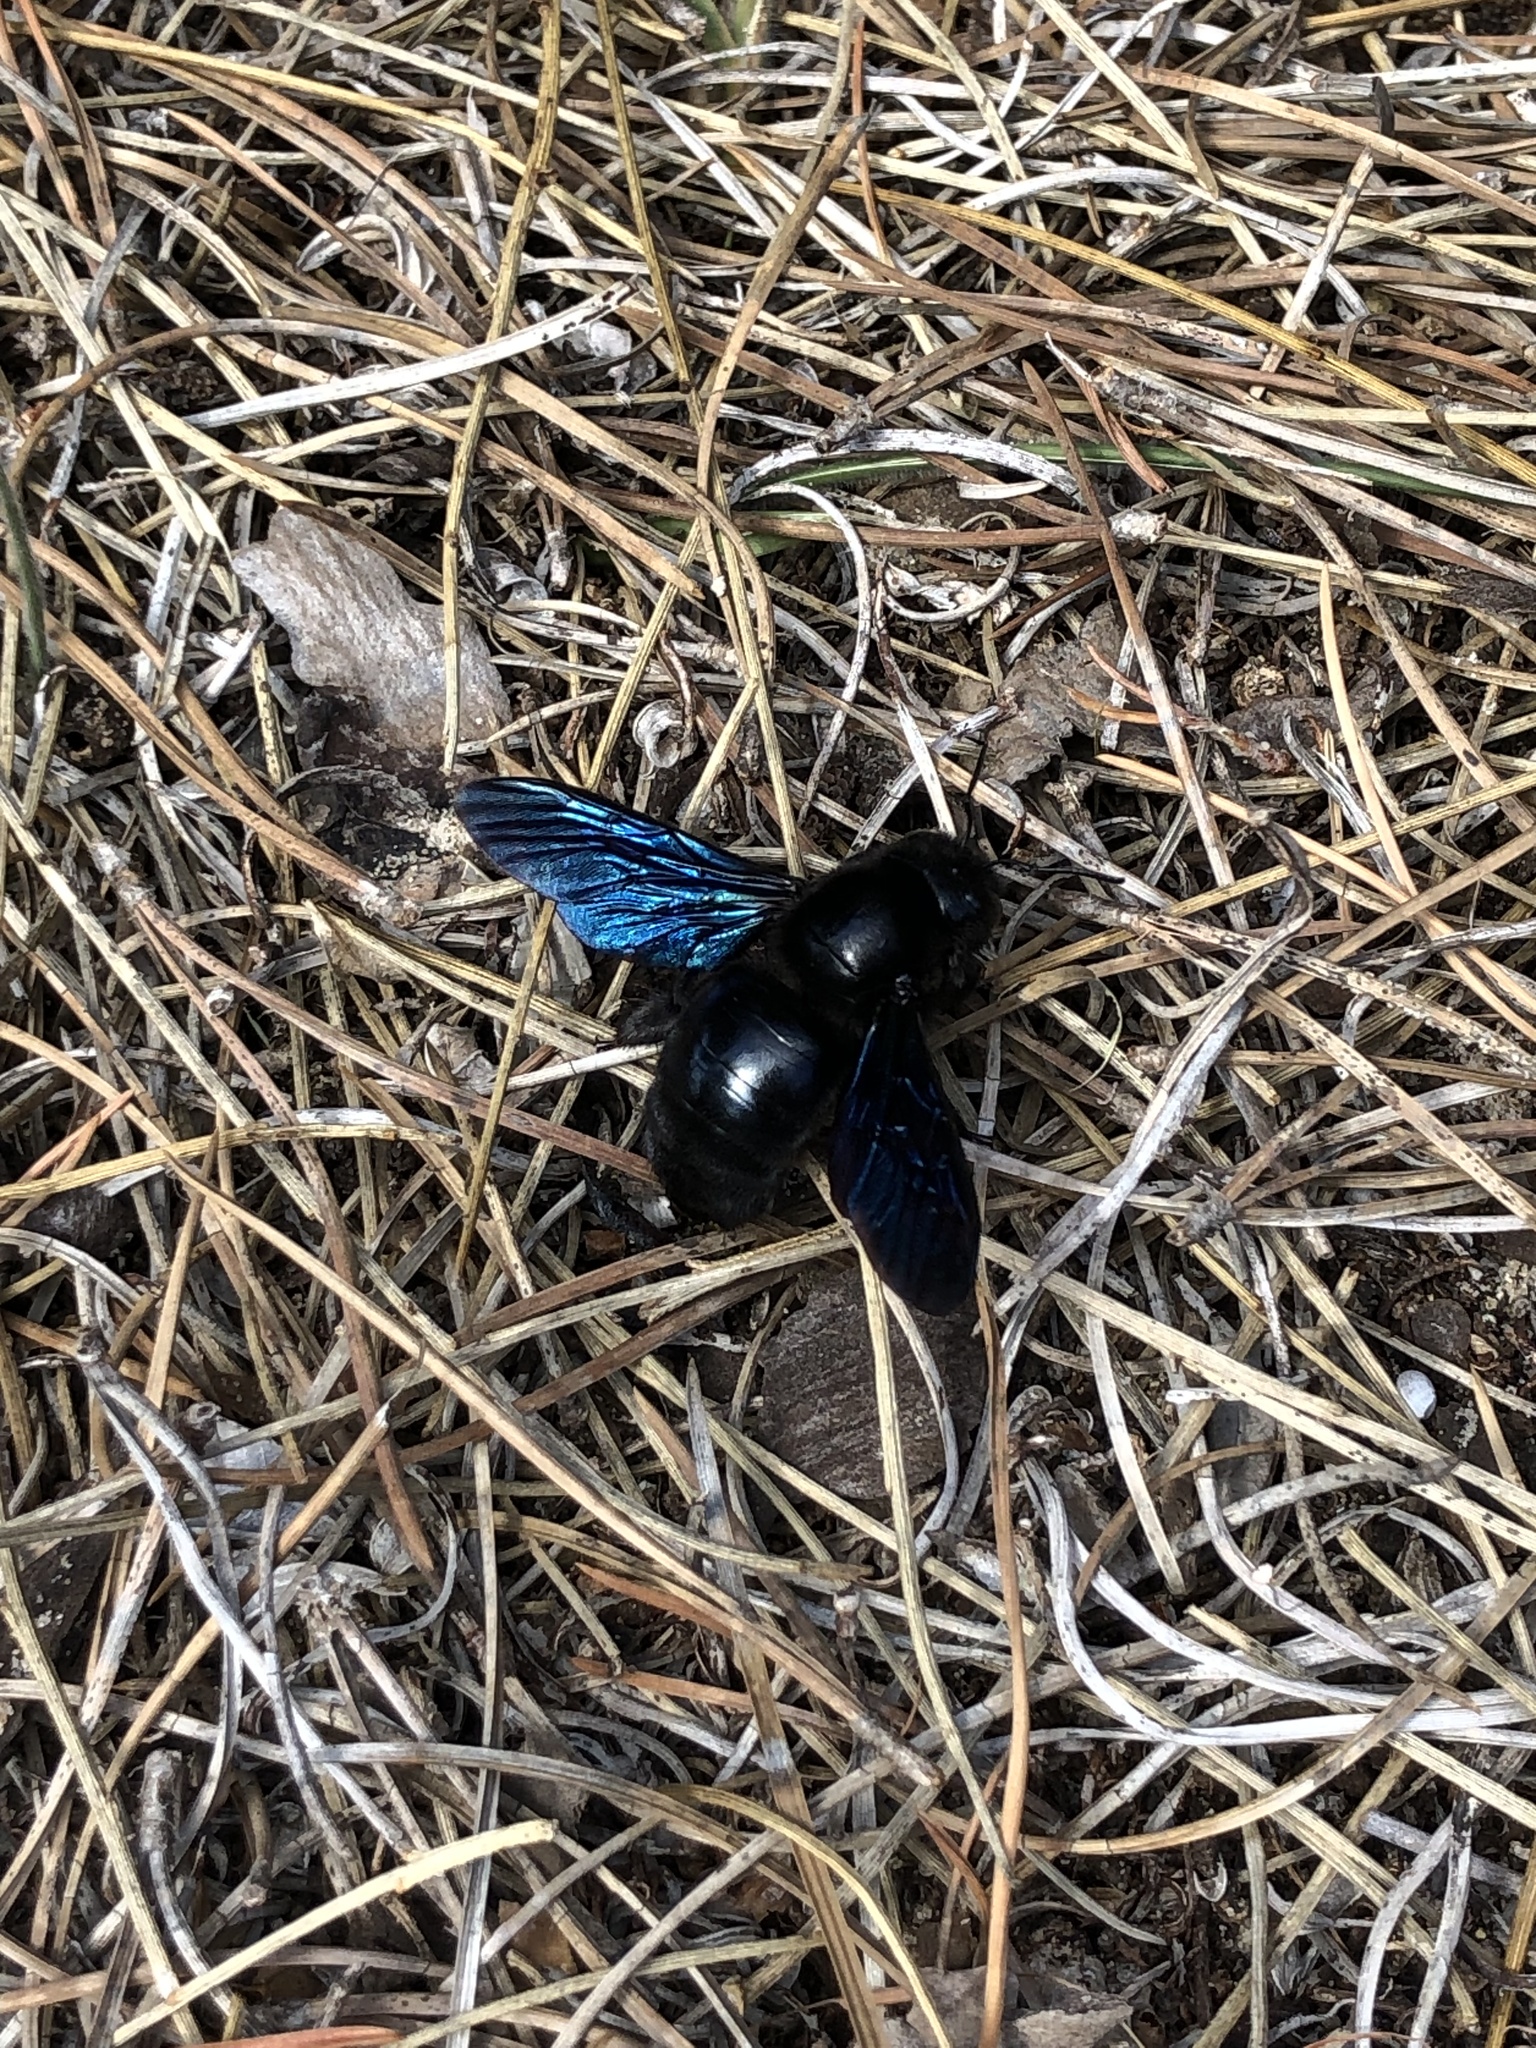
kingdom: Animalia
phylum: Arthropoda
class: Insecta
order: Hymenoptera
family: Apidae
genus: Xylocopa
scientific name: Xylocopa violacea
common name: Violet carpenter bee
